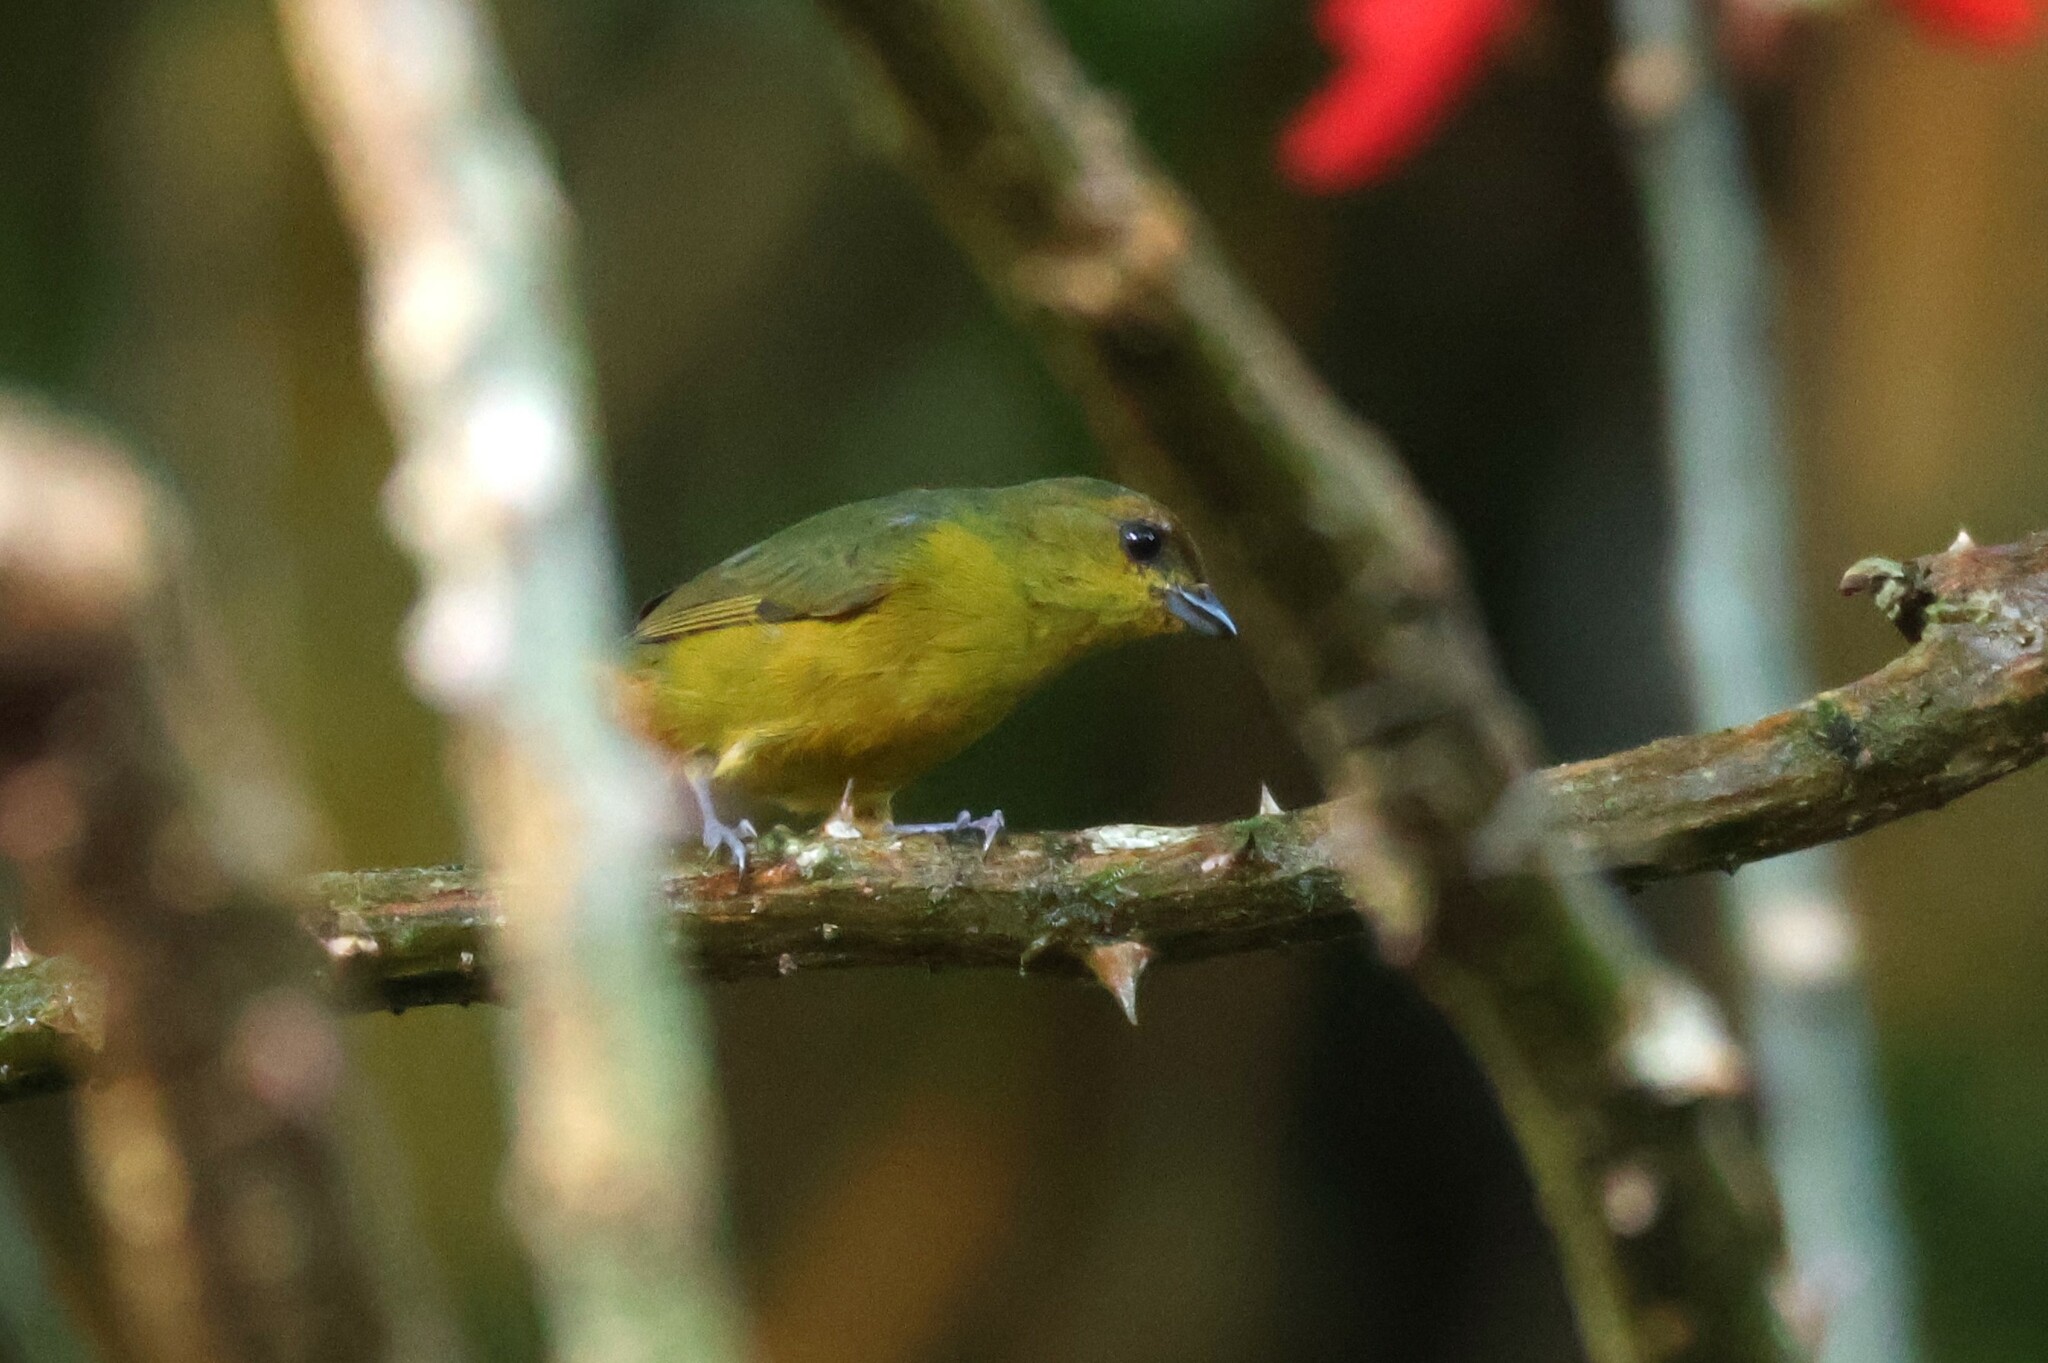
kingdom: Animalia
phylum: Chordata
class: Aves
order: Passeriformes
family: Fringillidae
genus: Euphonia
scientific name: Euphonia gouldi
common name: Olive-backed euphonia
